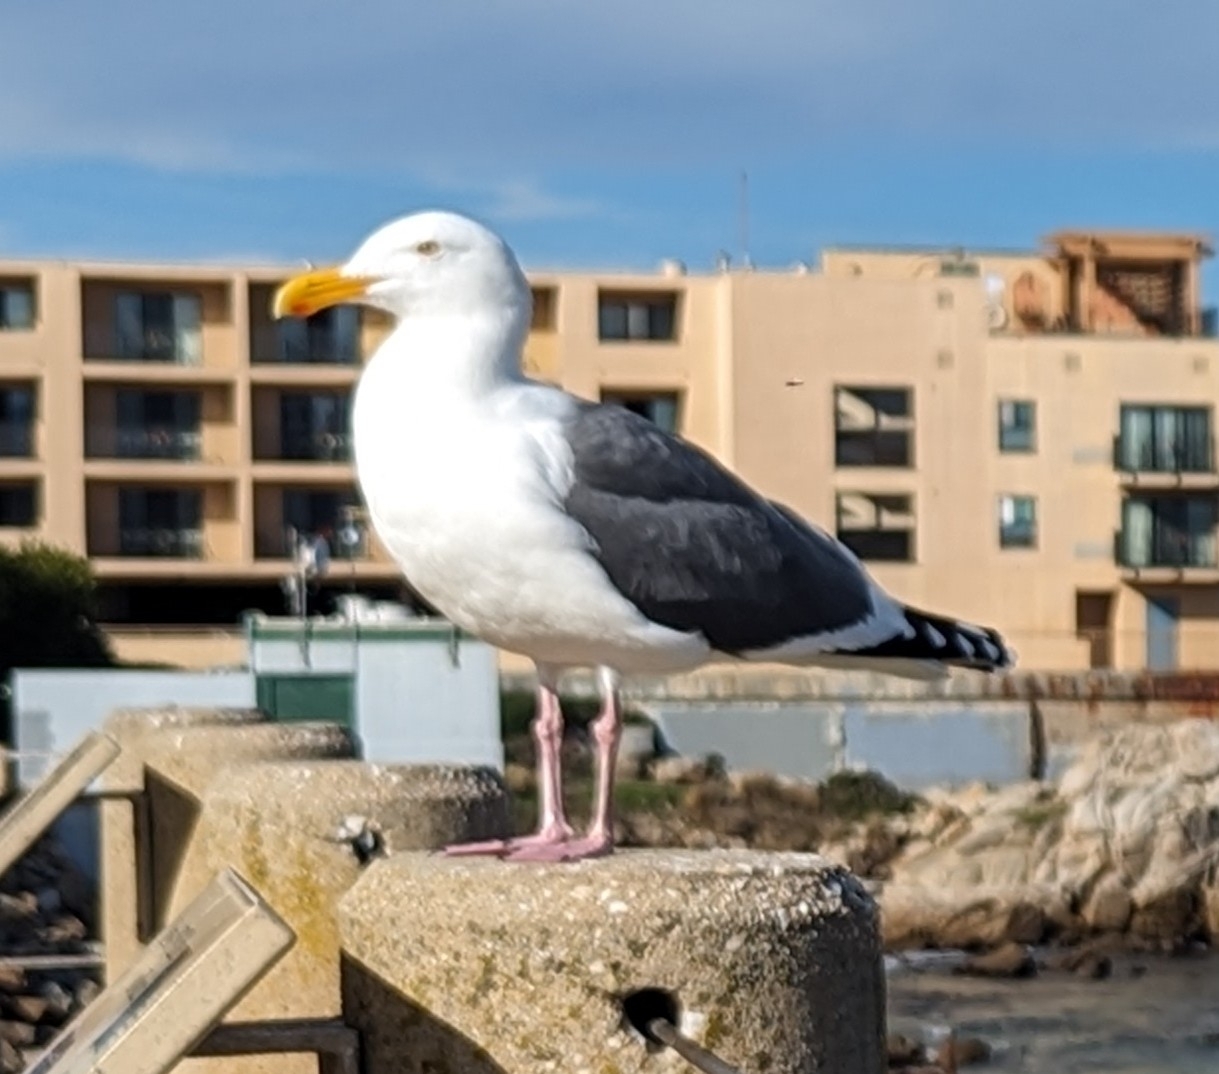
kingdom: Animalia
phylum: Chordata
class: Aves
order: Charadriiformes
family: Laridae
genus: Larus
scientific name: Larus occidentalis
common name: Western gull
